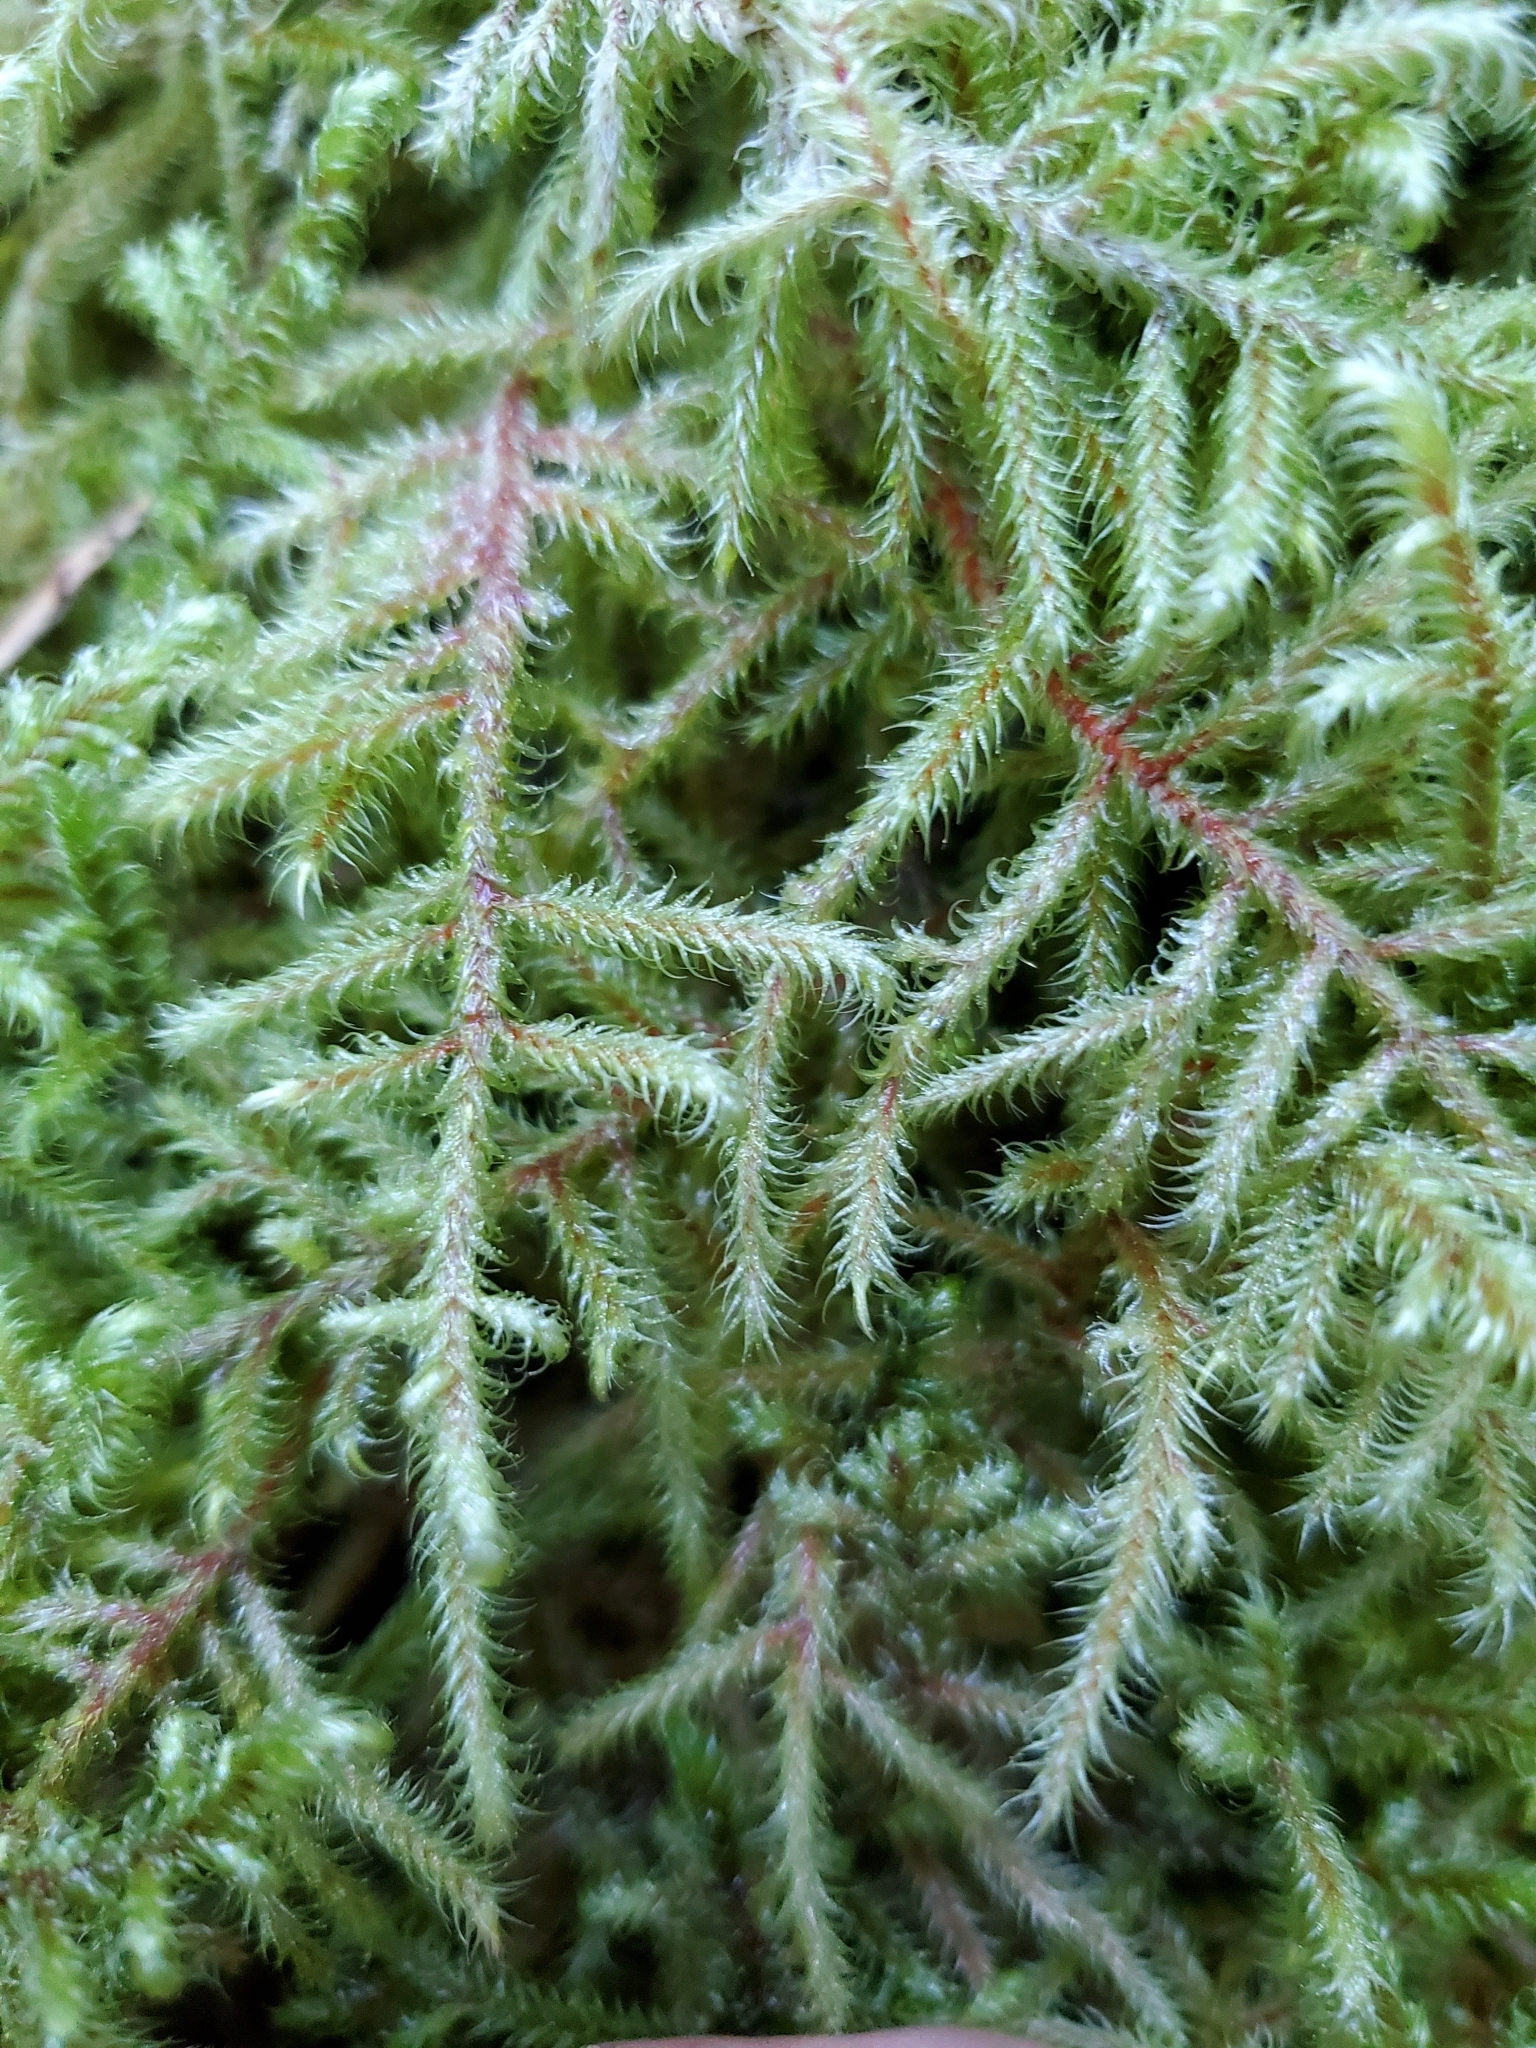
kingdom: Plantae
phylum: Bryophyta
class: Bryopsida
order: Hypnales
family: Hylocomiaceae
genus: Rhytidiadelphus
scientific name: Rhytidiadelphus loreus
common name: Lanky moss
